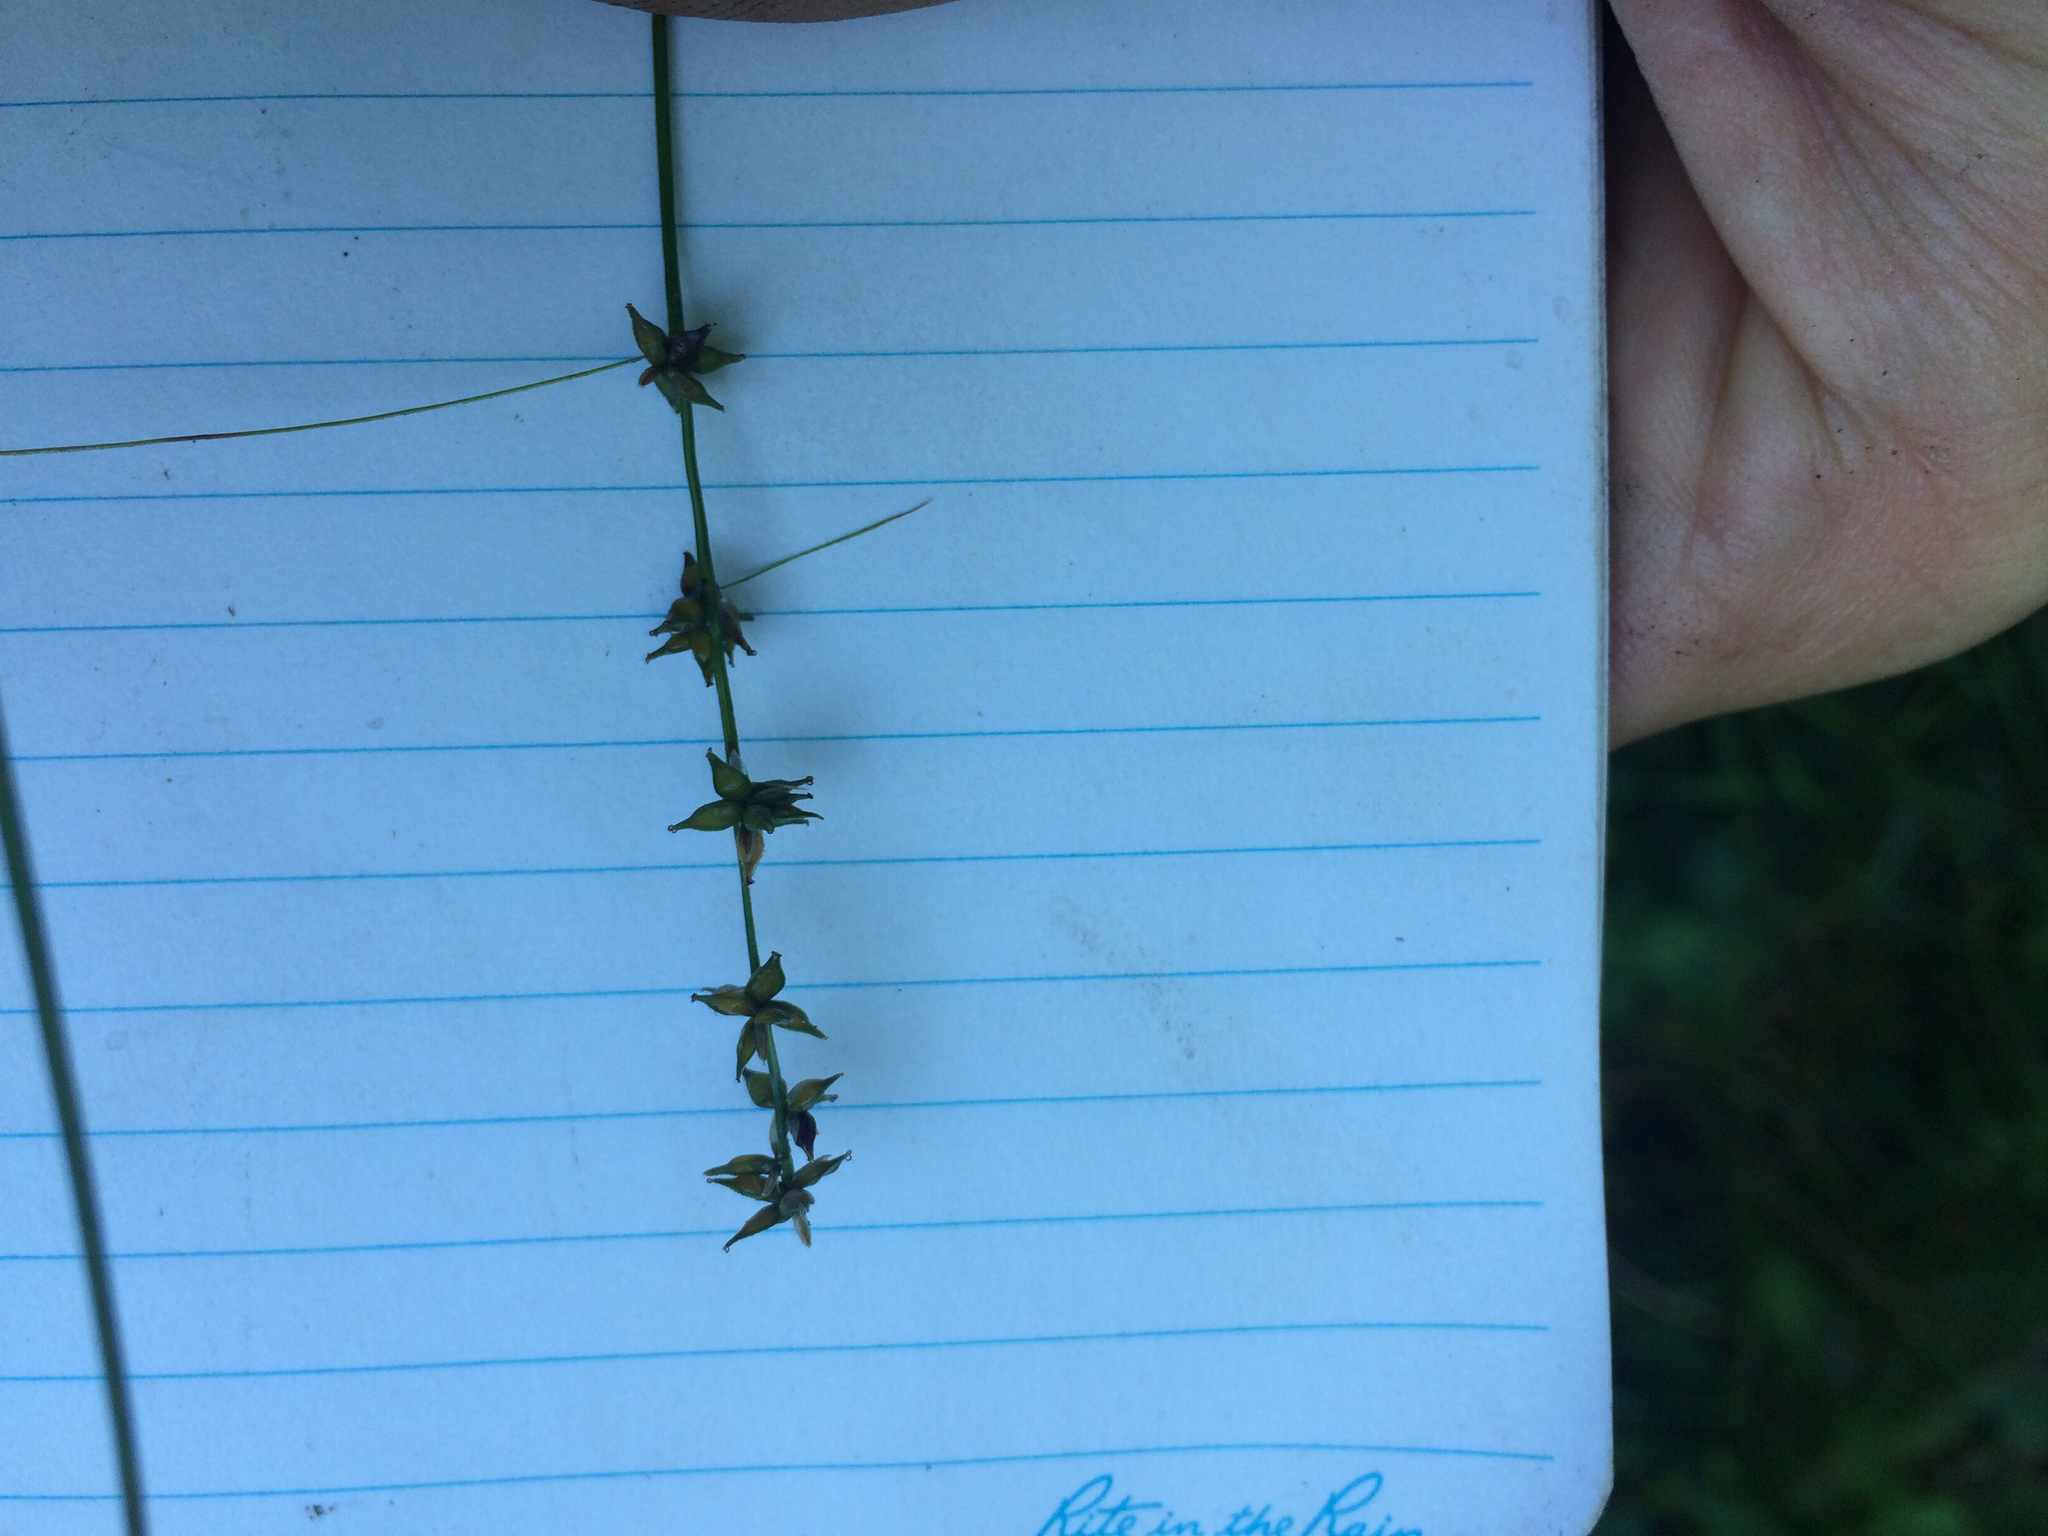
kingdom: Plantae
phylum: Tracheophyta
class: Liliopsida
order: Poales
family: Cyperaceae
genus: Carex
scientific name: Carex rosea
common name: Curly-styled wood sedge
